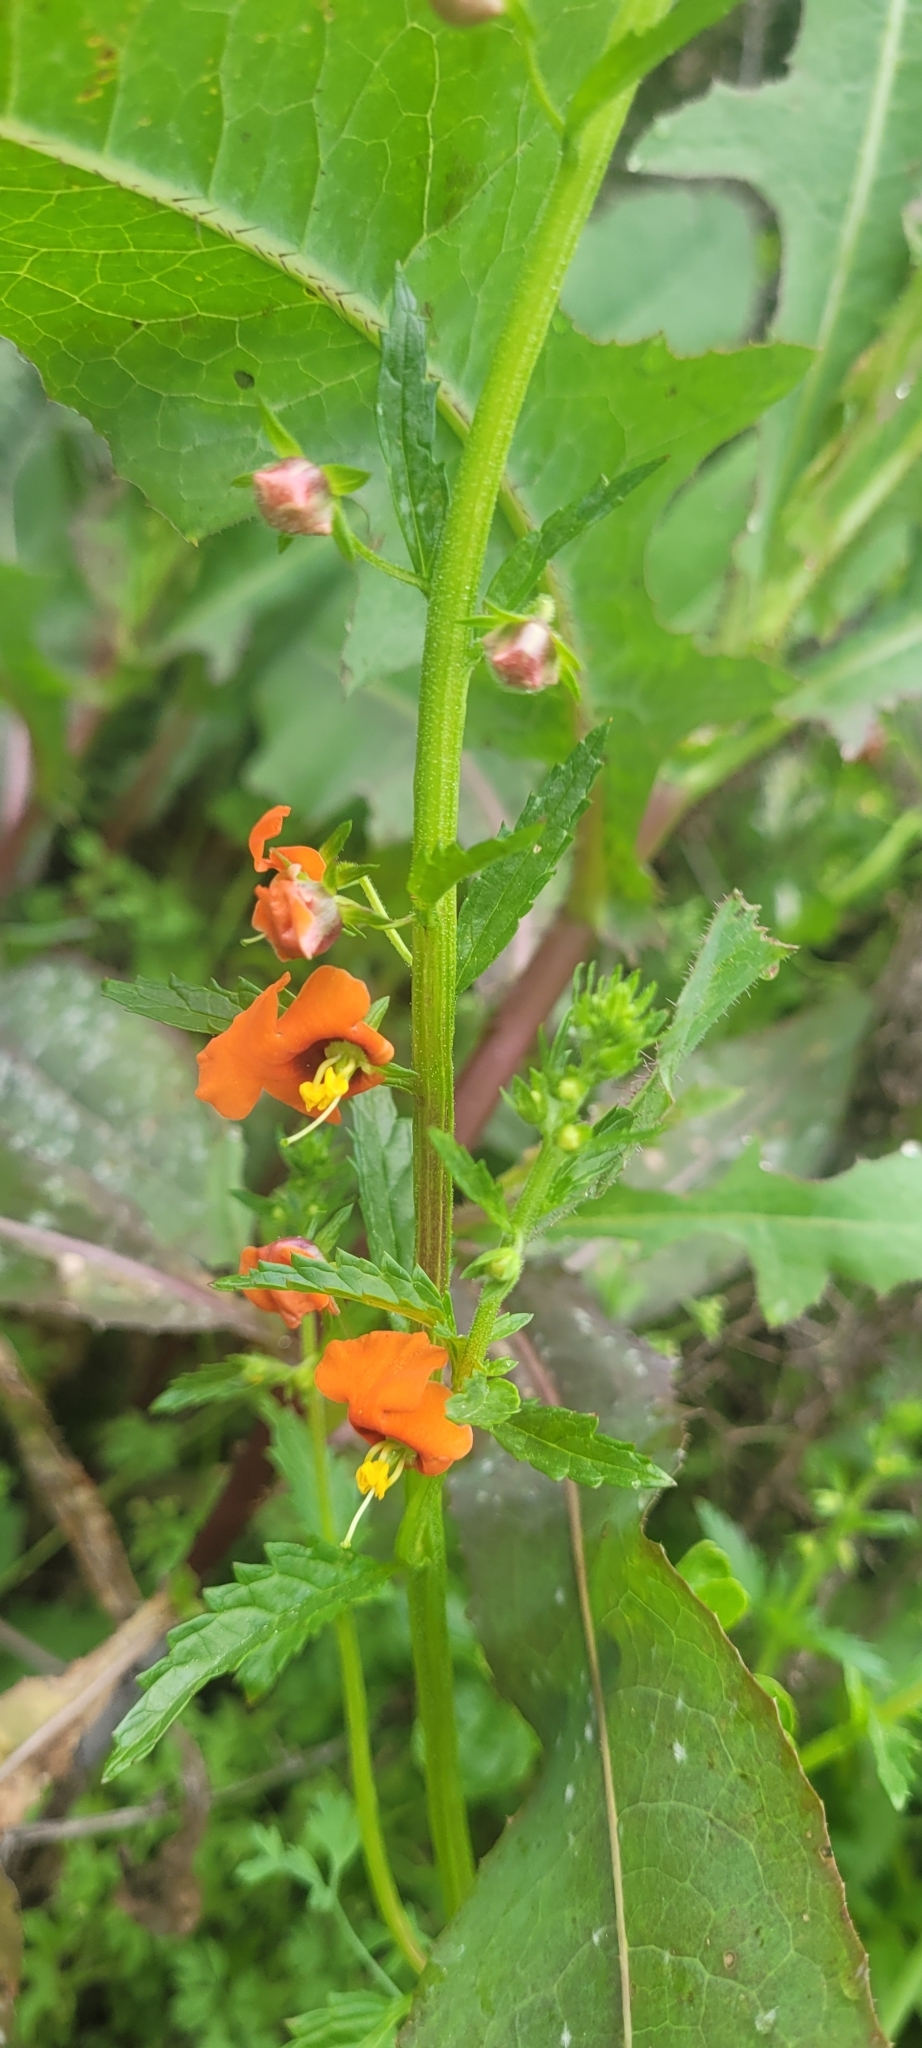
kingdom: Plantae
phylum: Tracheophyta
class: Magnoliopsida
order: Lamiales
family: Scrophulariaceae
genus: Alonsoa
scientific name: Alonsoa meridionalis
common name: Maskflower
